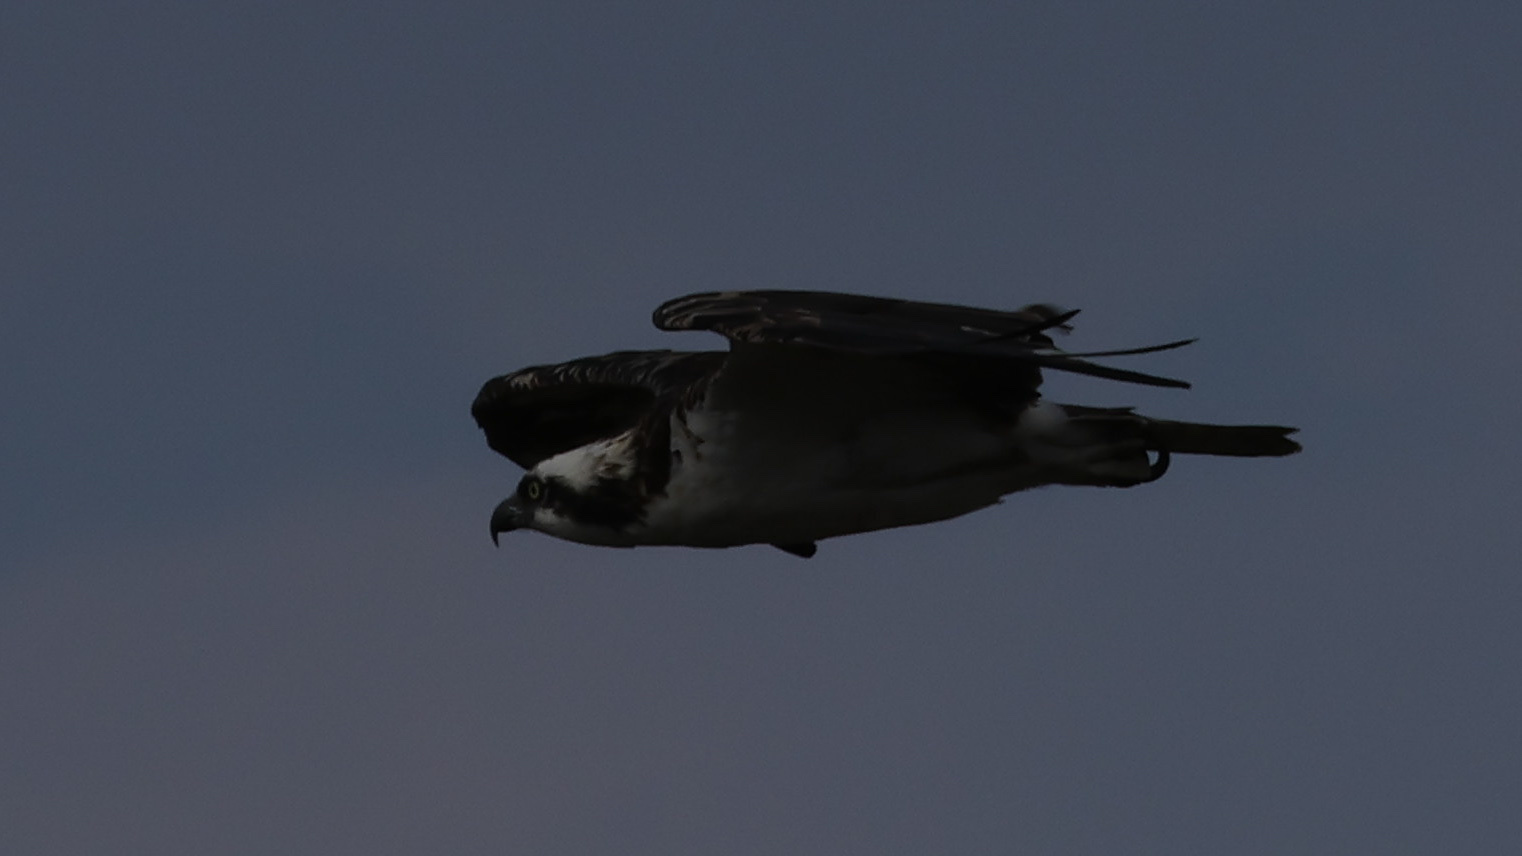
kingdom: Animalia
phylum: Chordata
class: Aves
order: Accipitriformes
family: Pandionidae
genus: Pandion
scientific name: Pandion haliaetus
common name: Osprey
